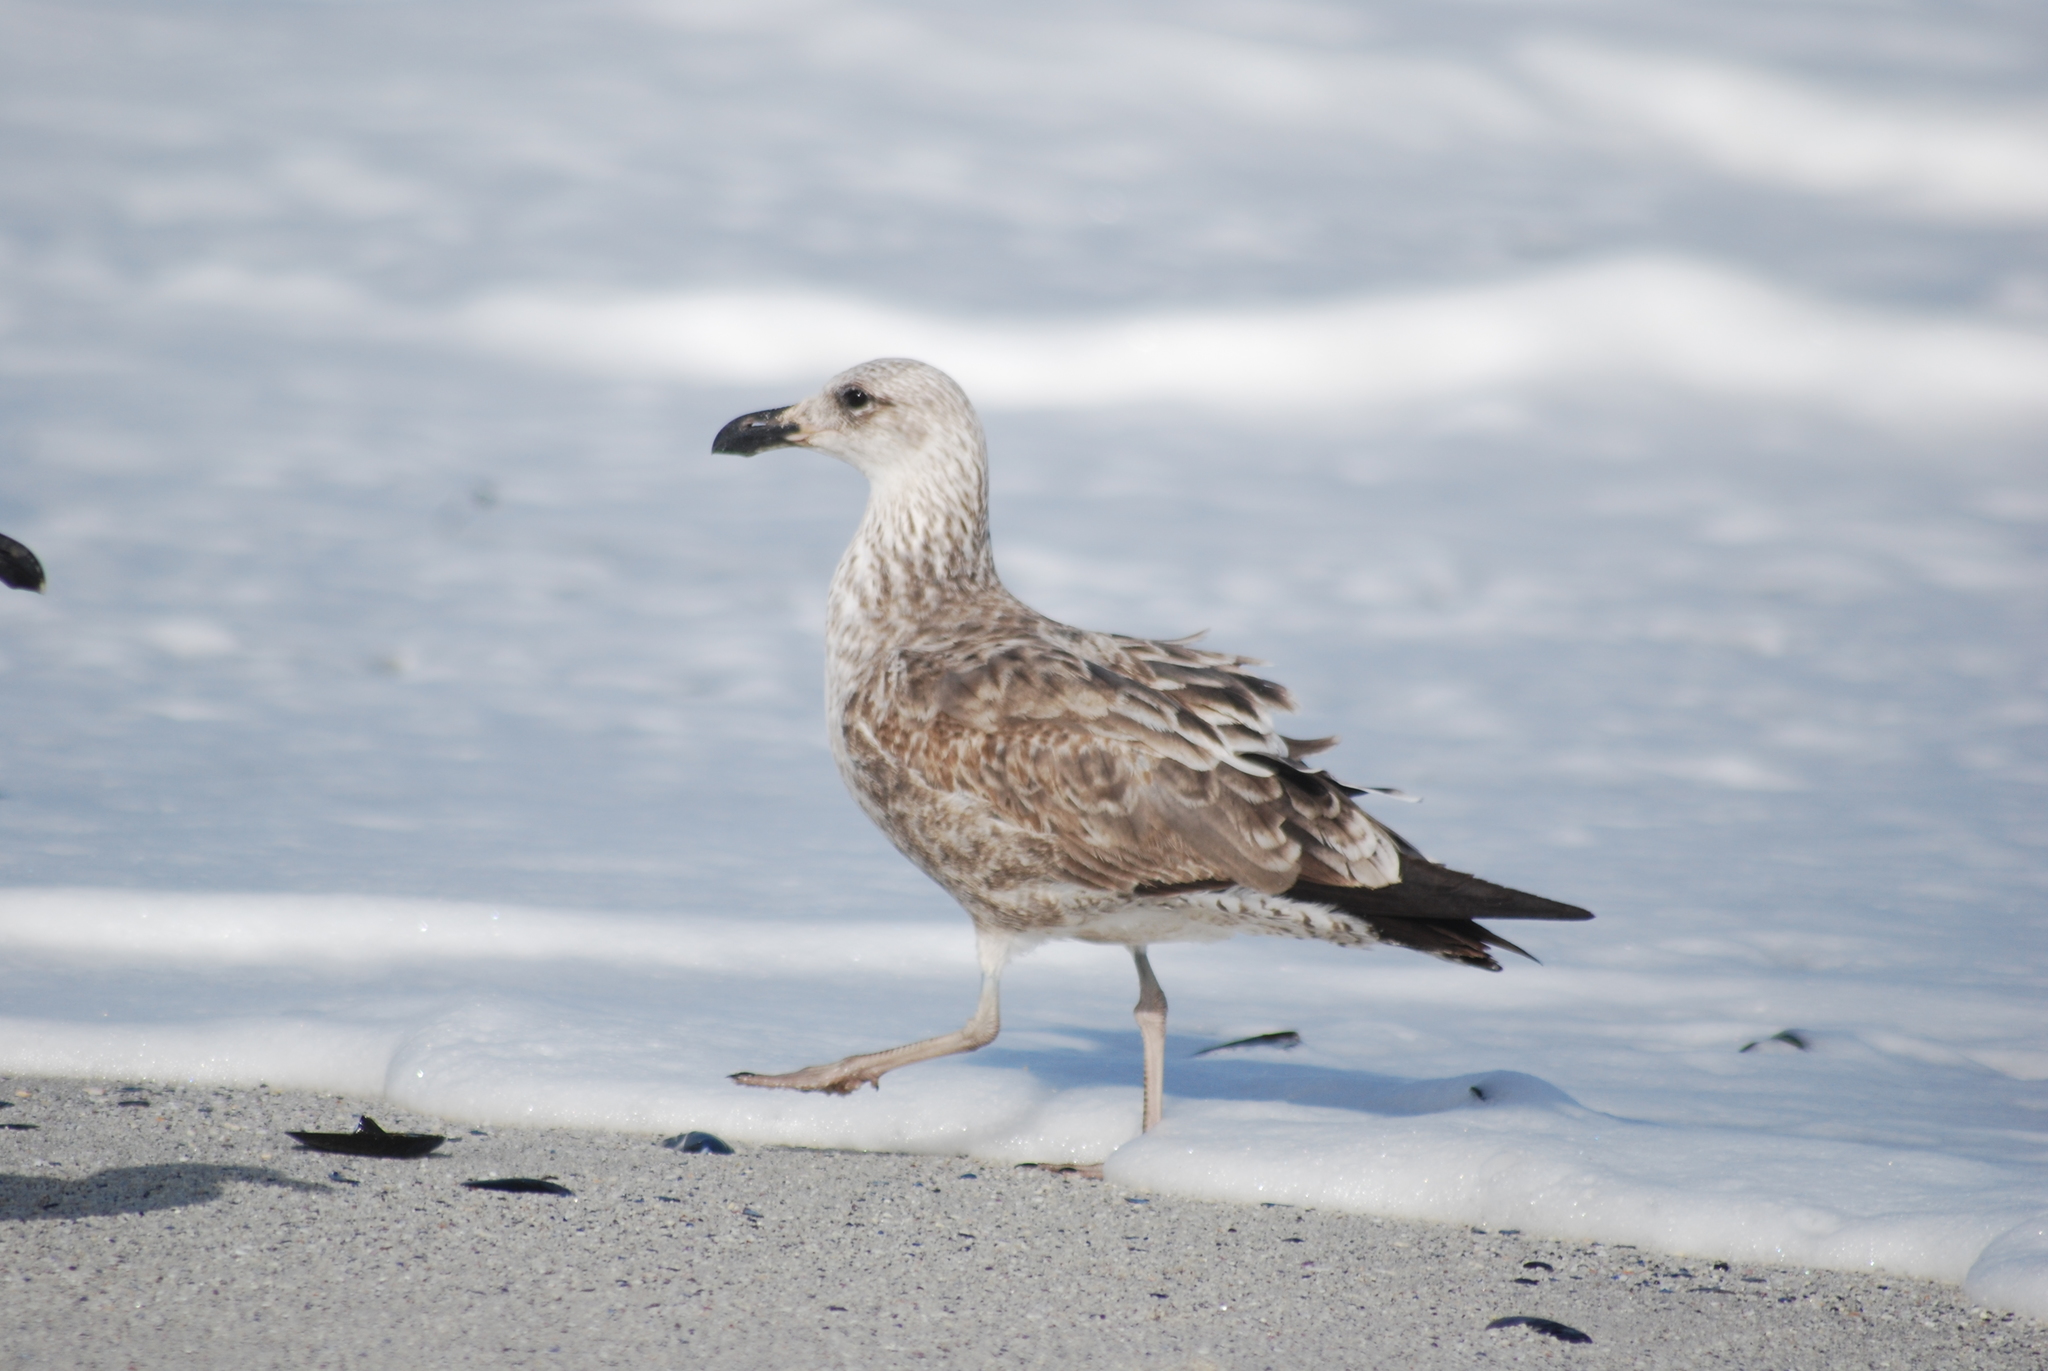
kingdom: Animalia
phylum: Chordata
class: Aves
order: Charadriiformes
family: Laridae
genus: Larus
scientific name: Larus dominicanus
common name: Kelp gull
